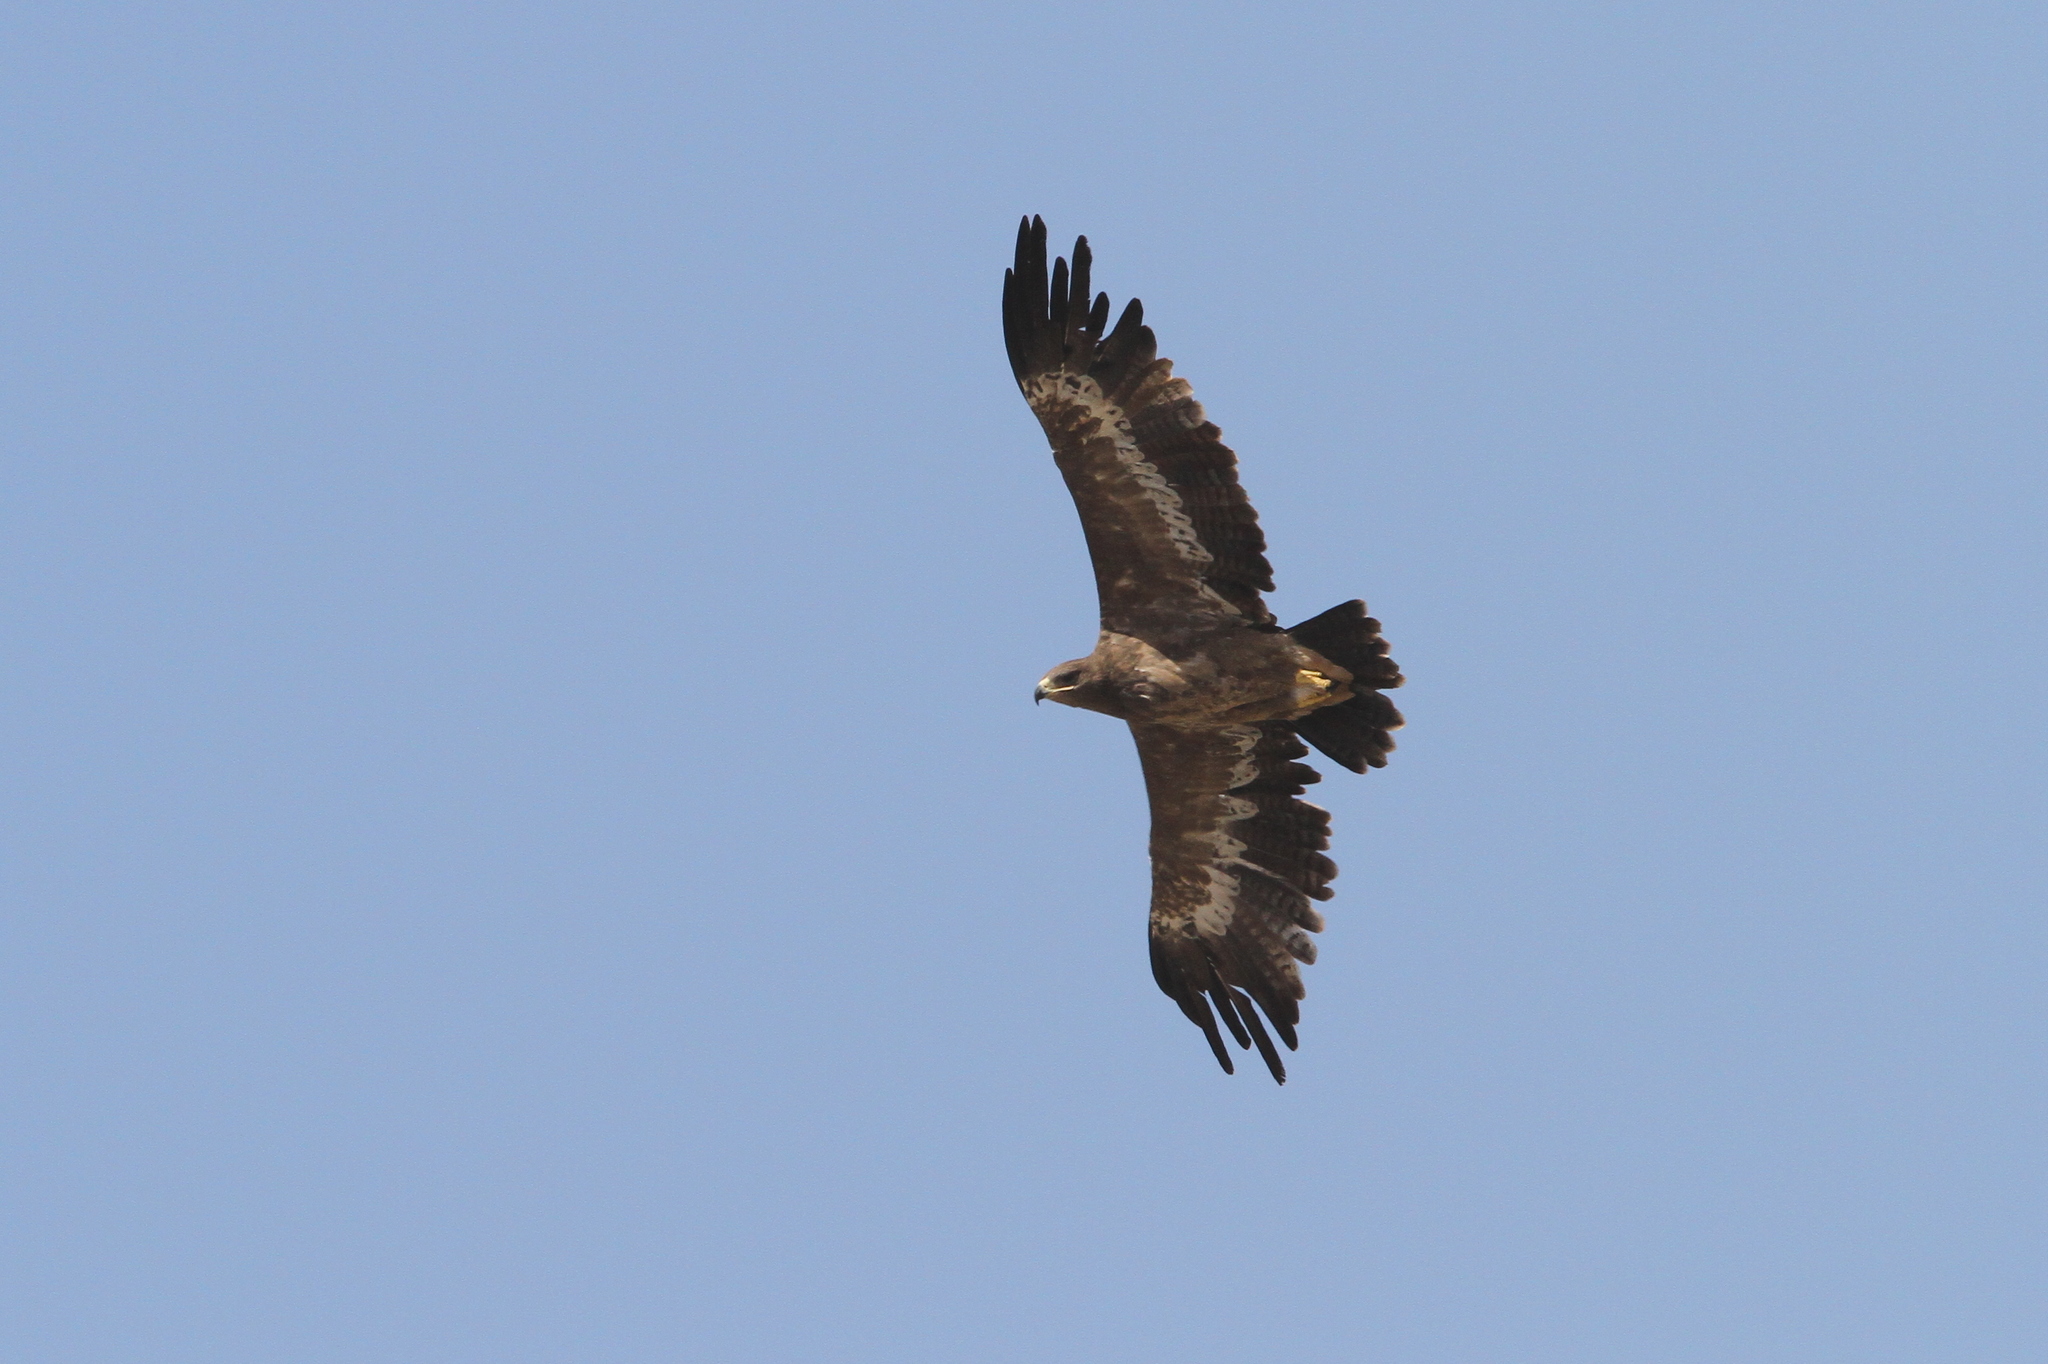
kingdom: Animalia
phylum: Chordata
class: Aves
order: Accipitriformes
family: Accipitridae
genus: Aquila
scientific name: Aquila nipalensis
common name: Steppe eagle
